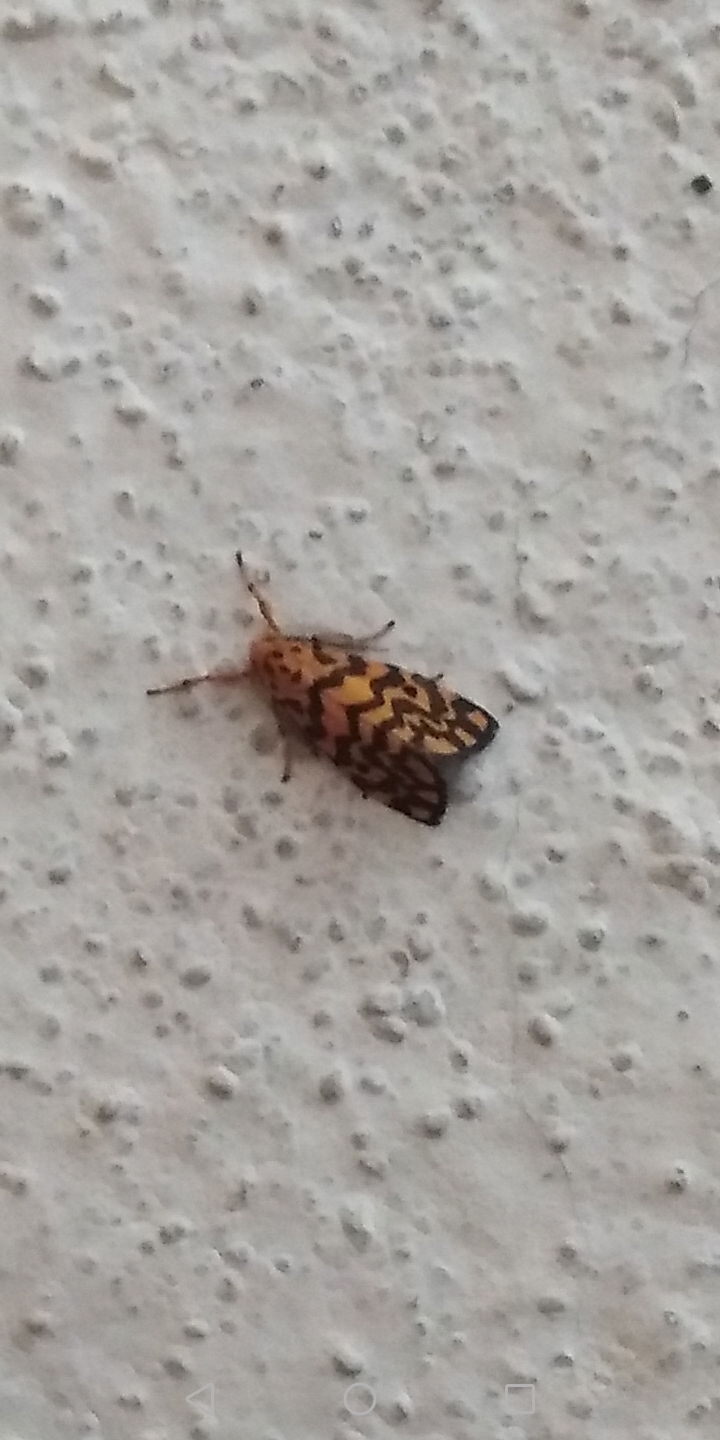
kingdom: Animalia
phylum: Arthropoda
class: Insecta
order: Lepidoptera
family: Erebidae
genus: Nepita
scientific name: Nepita conferta
